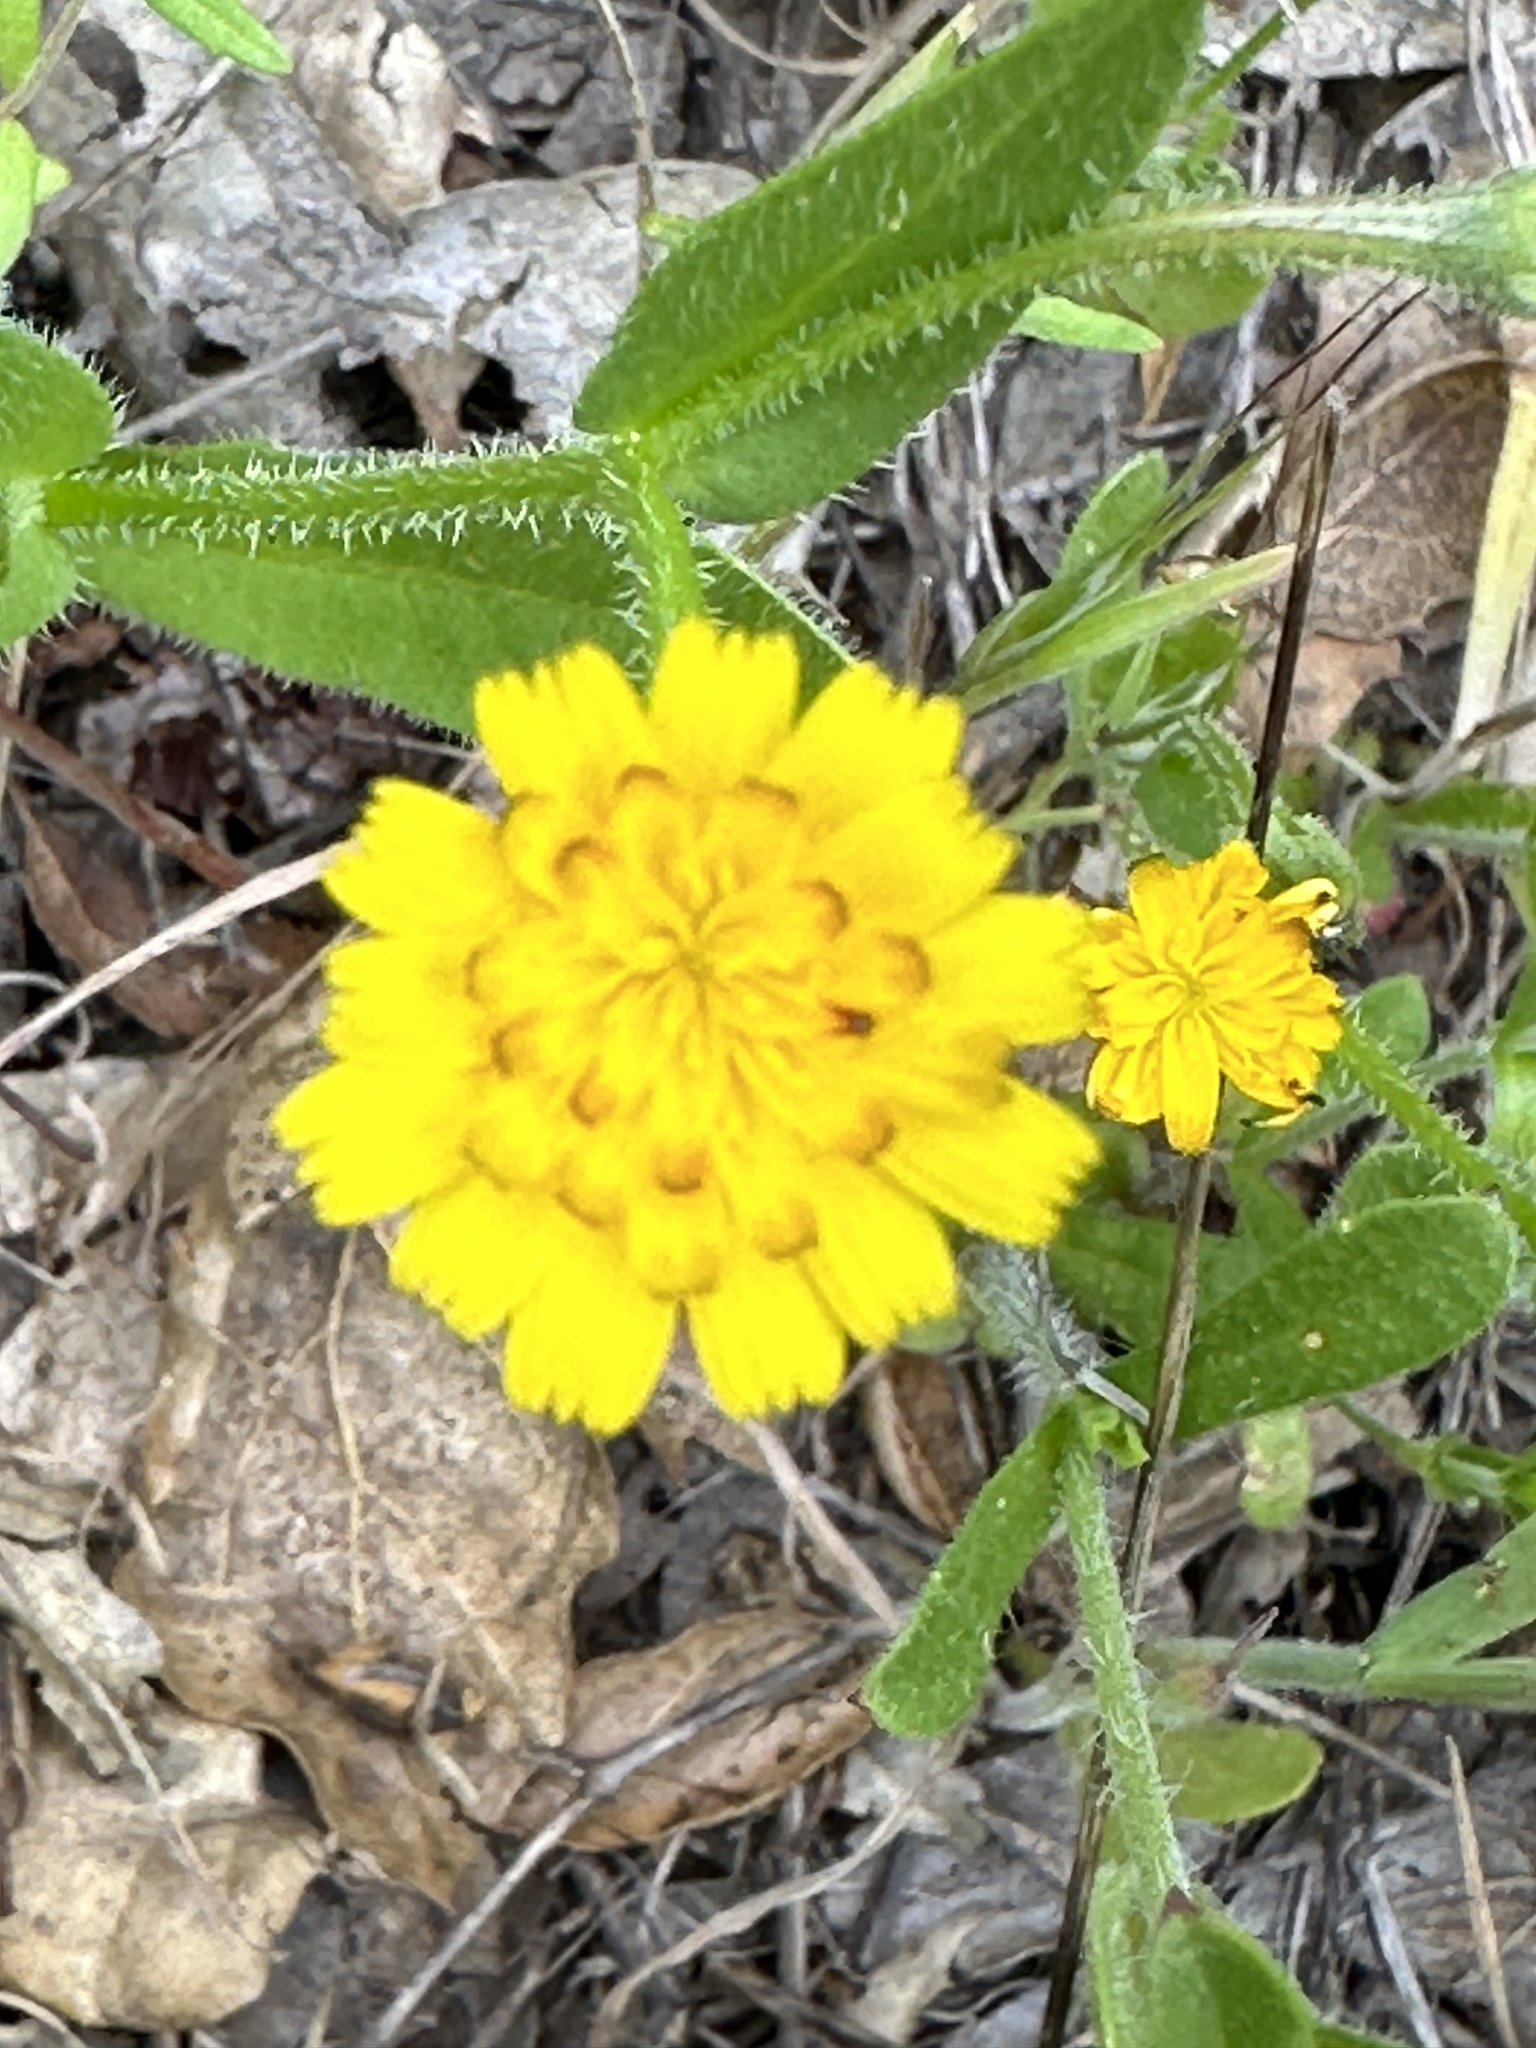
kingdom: Plantae
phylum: Tracheophyta
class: Magnoliopsida
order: Asterales
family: Asteraceae
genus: Hedypnois
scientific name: Hedypnois rhagadioloides
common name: Cretan weed
